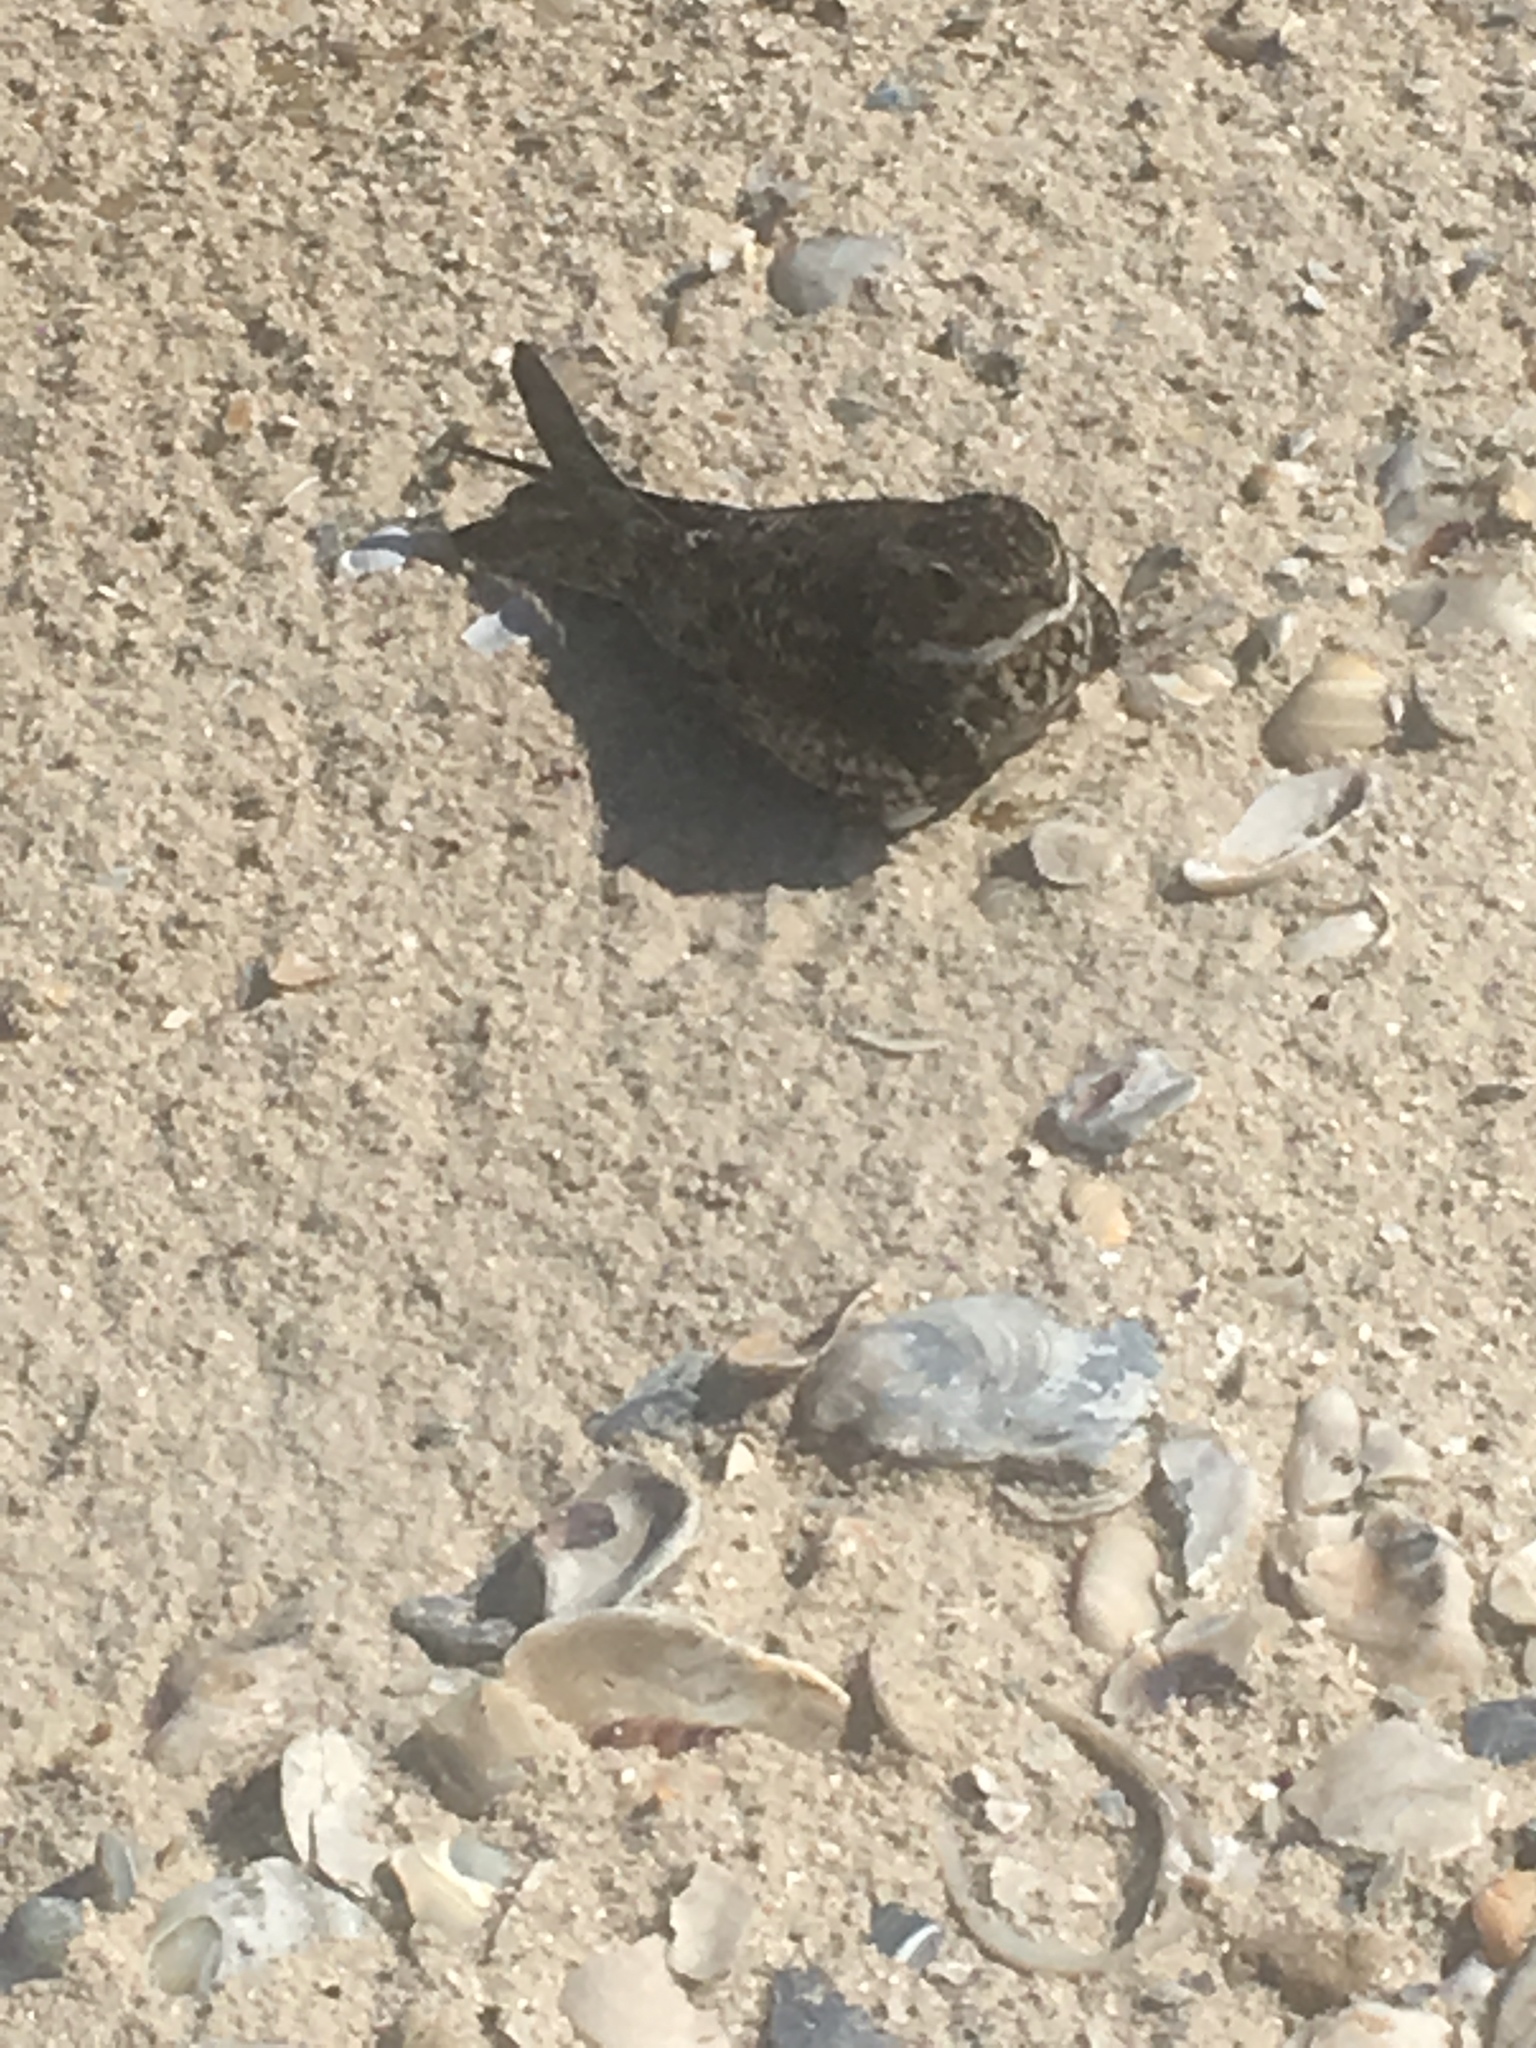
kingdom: Animalia
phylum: Chordata
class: Aves
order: Caprimulgiformes
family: Caprimulgidae
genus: Chordeiles
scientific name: Chordeiles minor
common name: Common nighthawk
